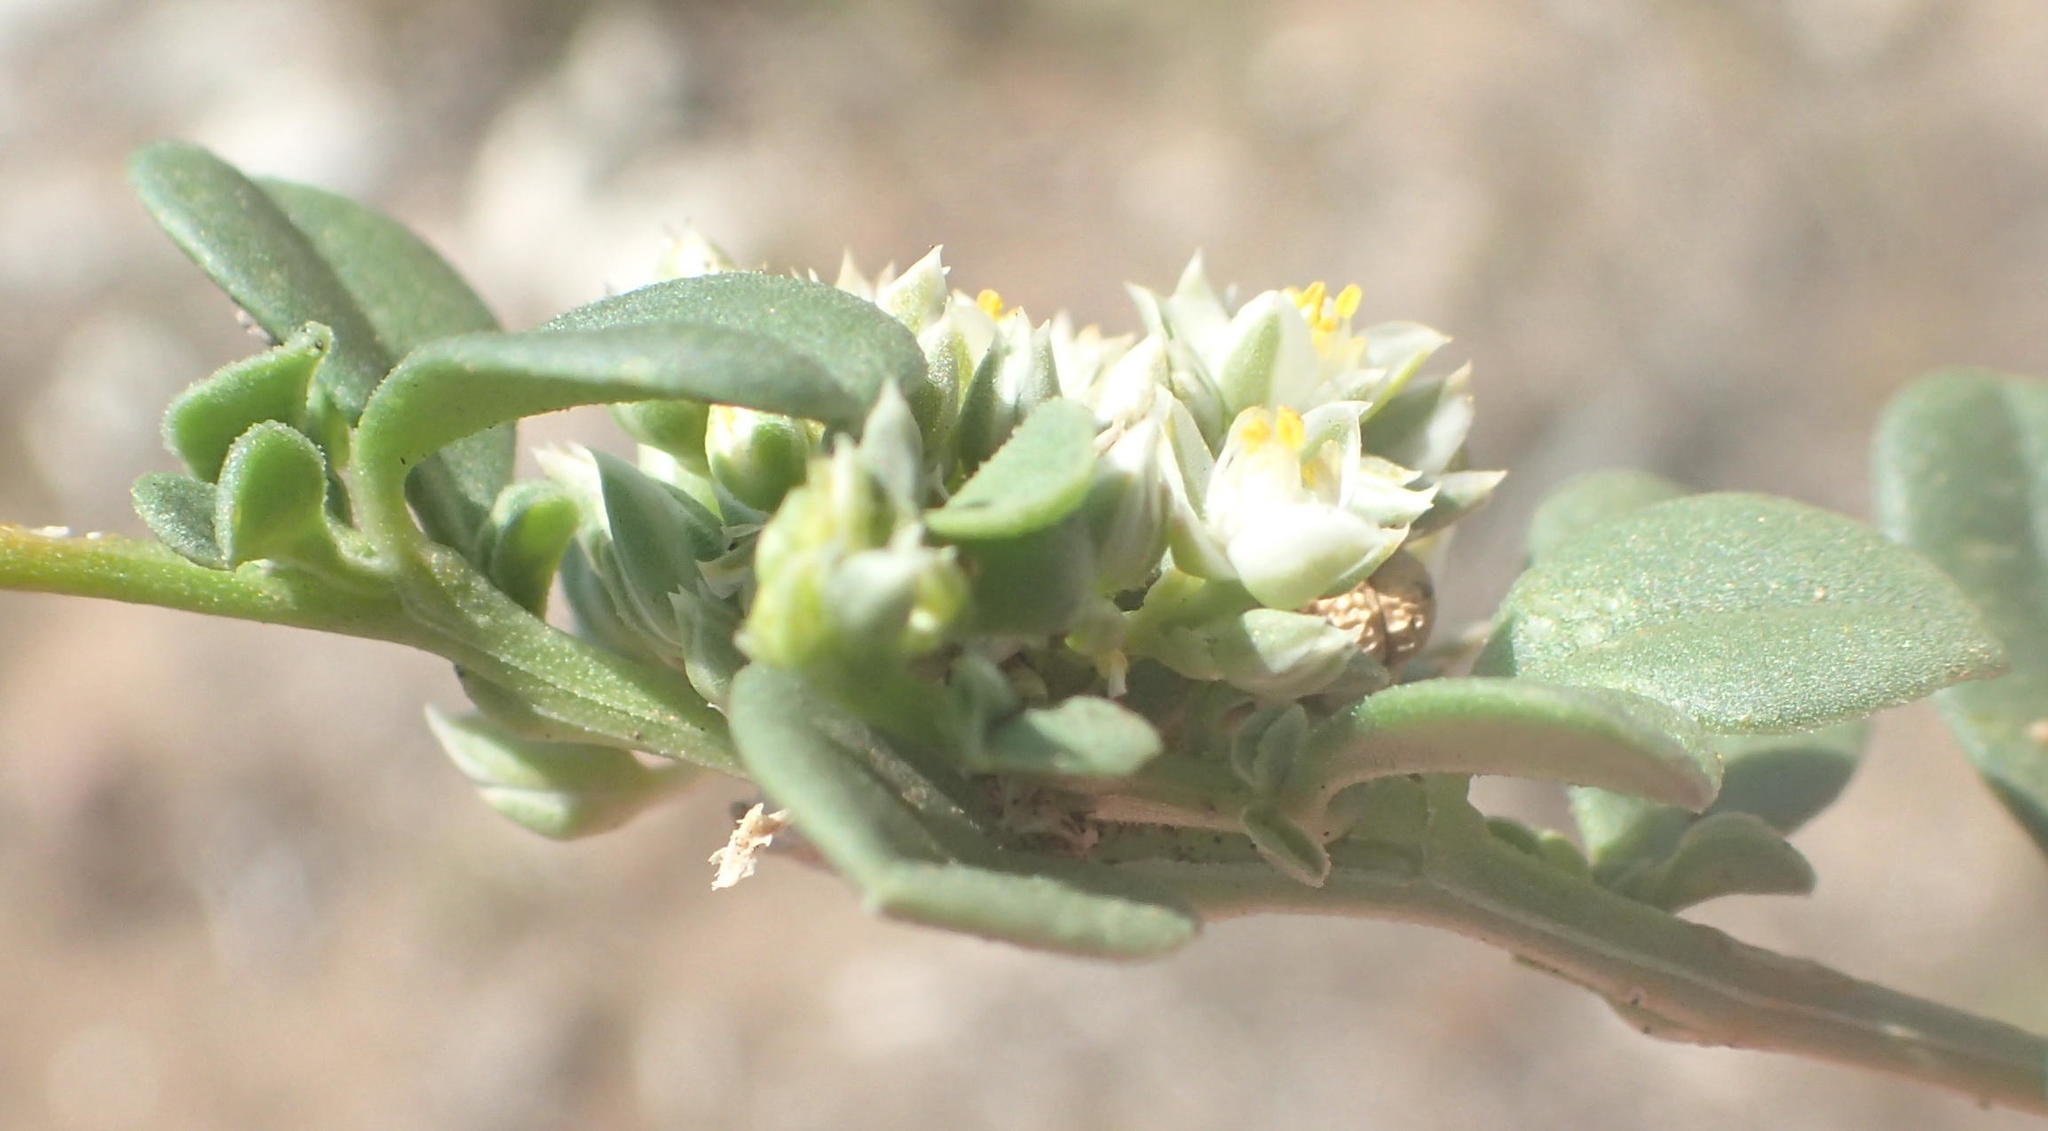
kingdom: Plantae
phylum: Tracheophyta
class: Magnoliopsida
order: Caryophyllales
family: Limeaceae
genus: Limeum
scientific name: Limeum telephioides
